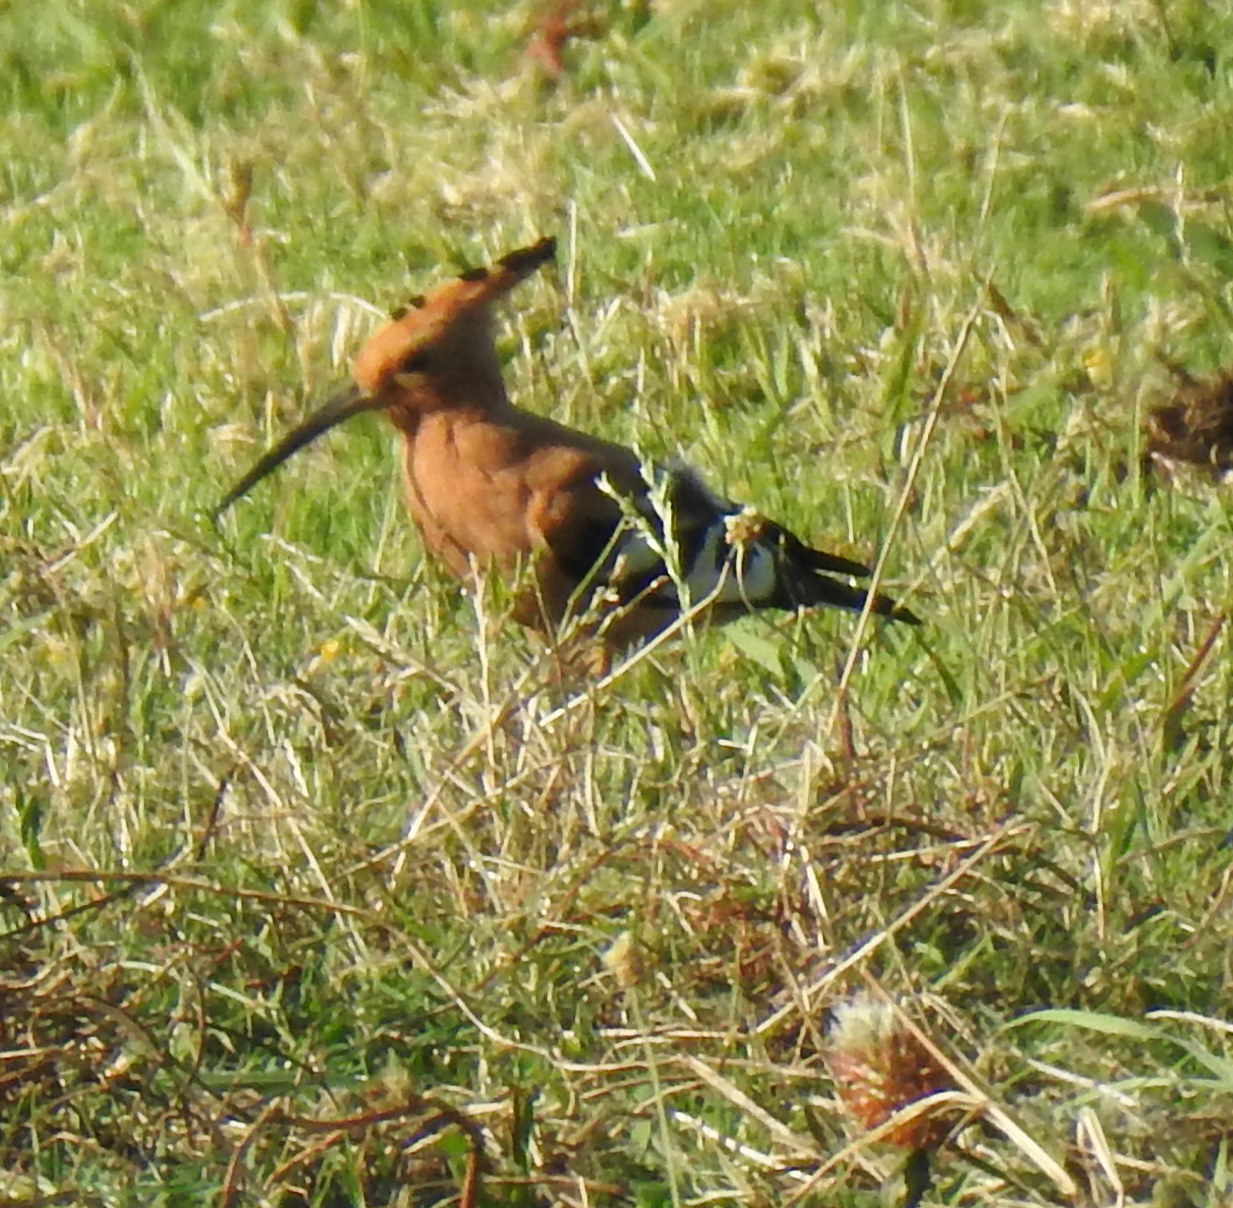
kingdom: Animalia
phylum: Chordata
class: Aves
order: Bucerotiformes
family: Upupidae
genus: Upupa
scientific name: Upupa africana
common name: African hoopoe
